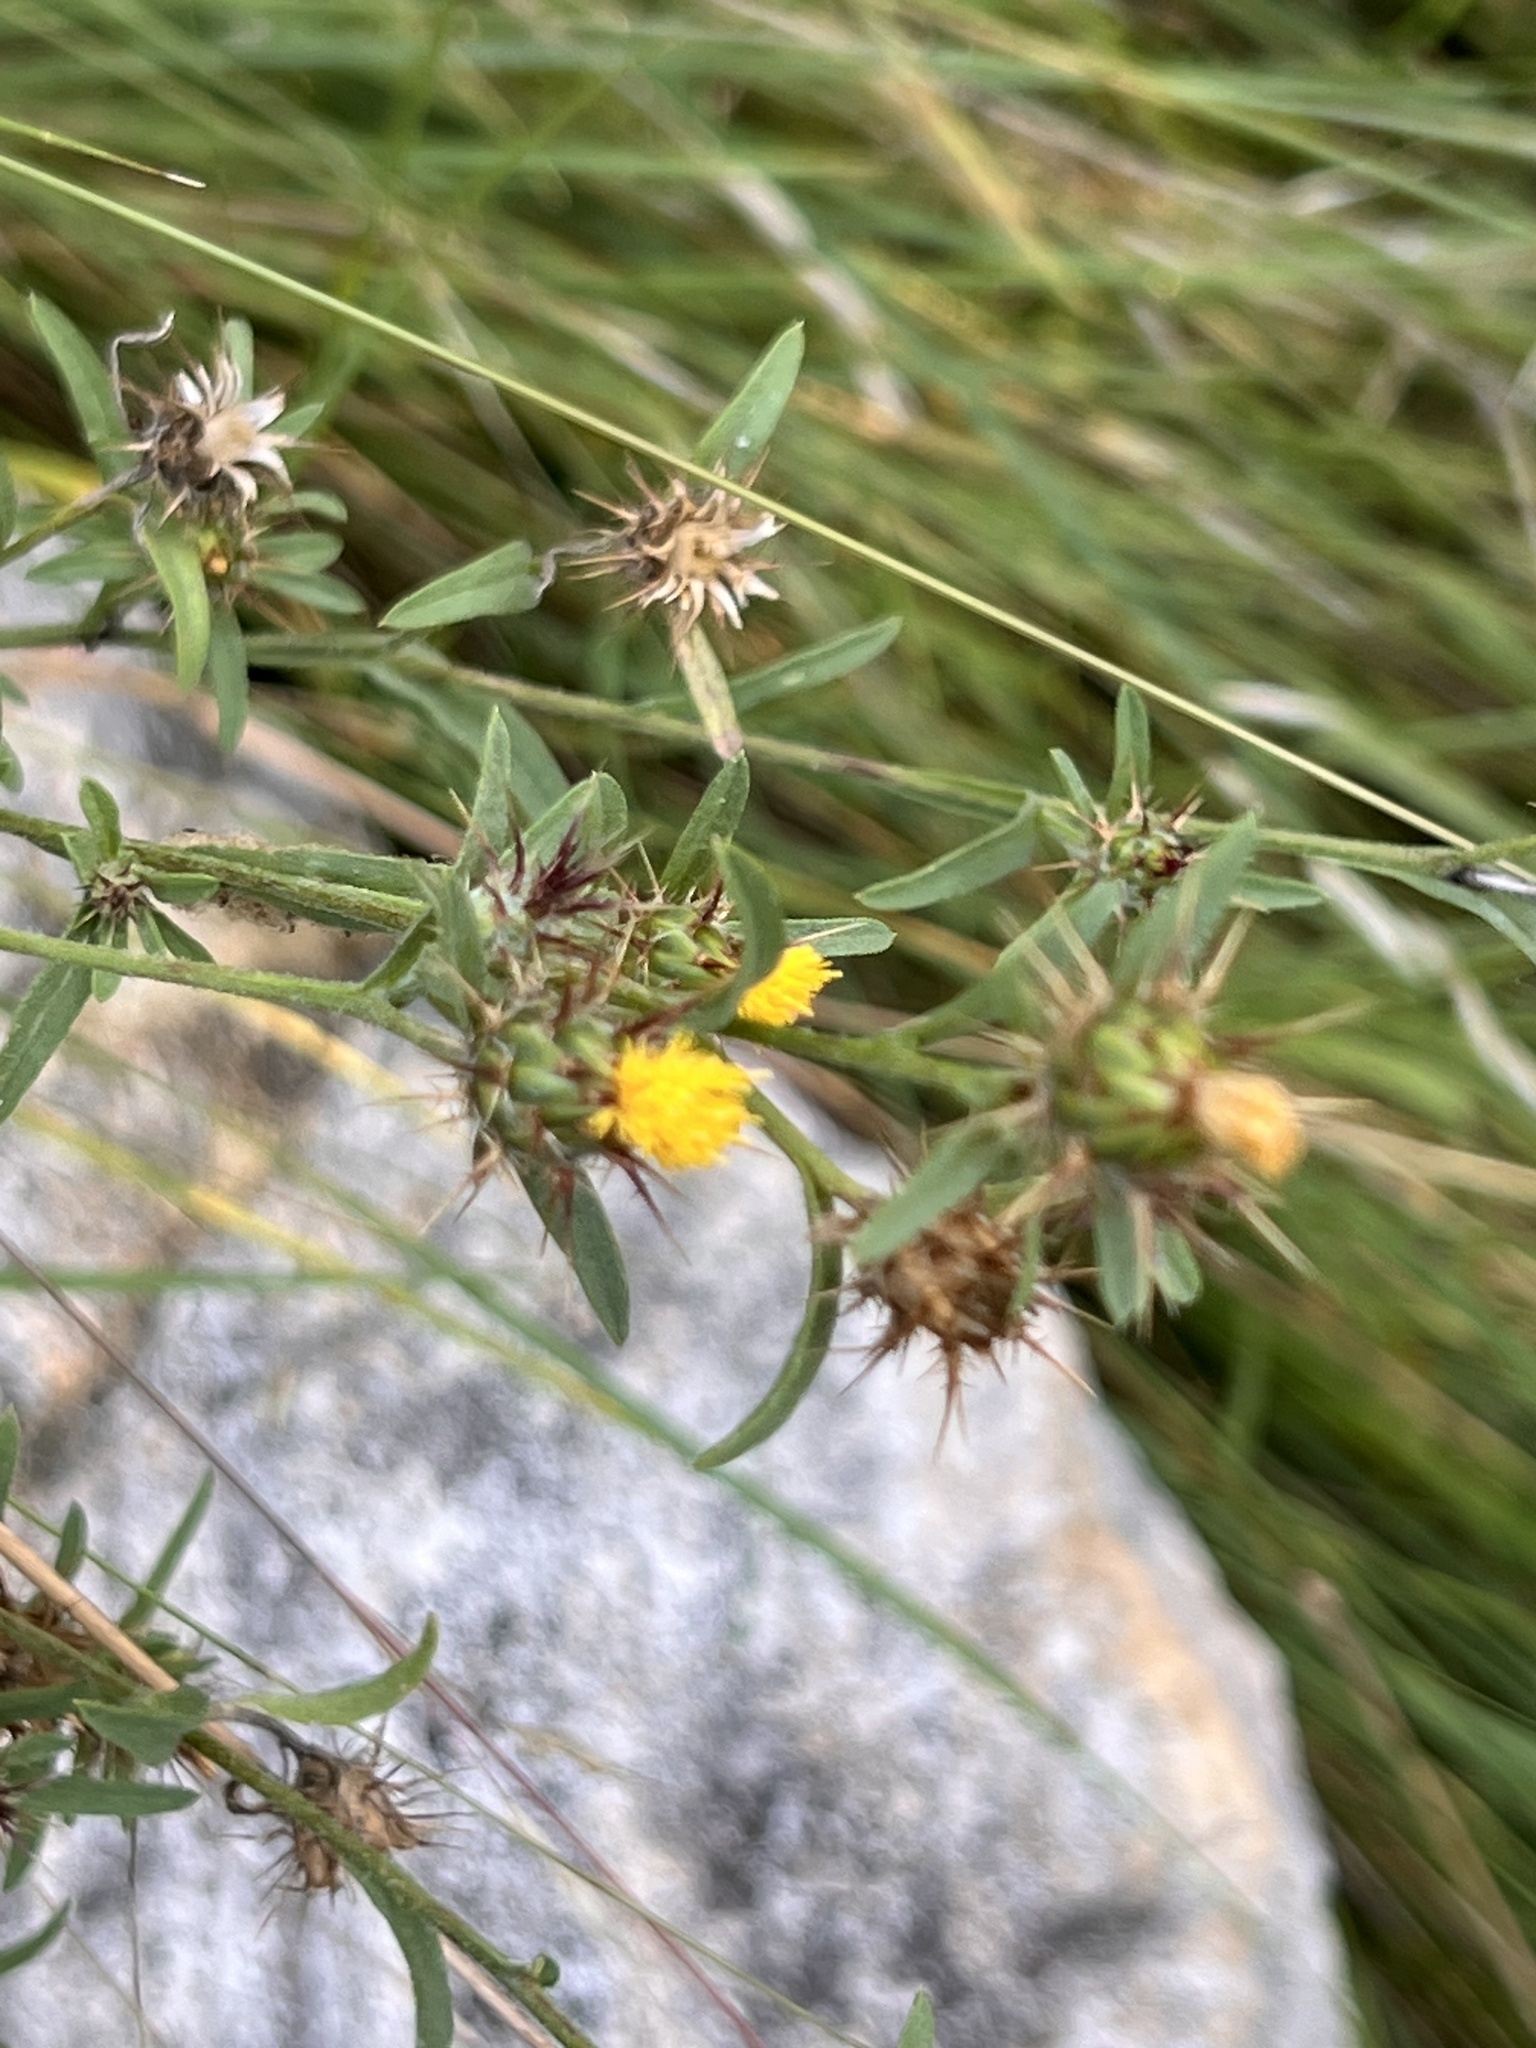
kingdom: Plantae
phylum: Tracheophyta
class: Magnoliopsida
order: Asterales
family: Asteraceae
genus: Centaurea
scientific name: Centaurea melitensis
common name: Maltese star-thistle
